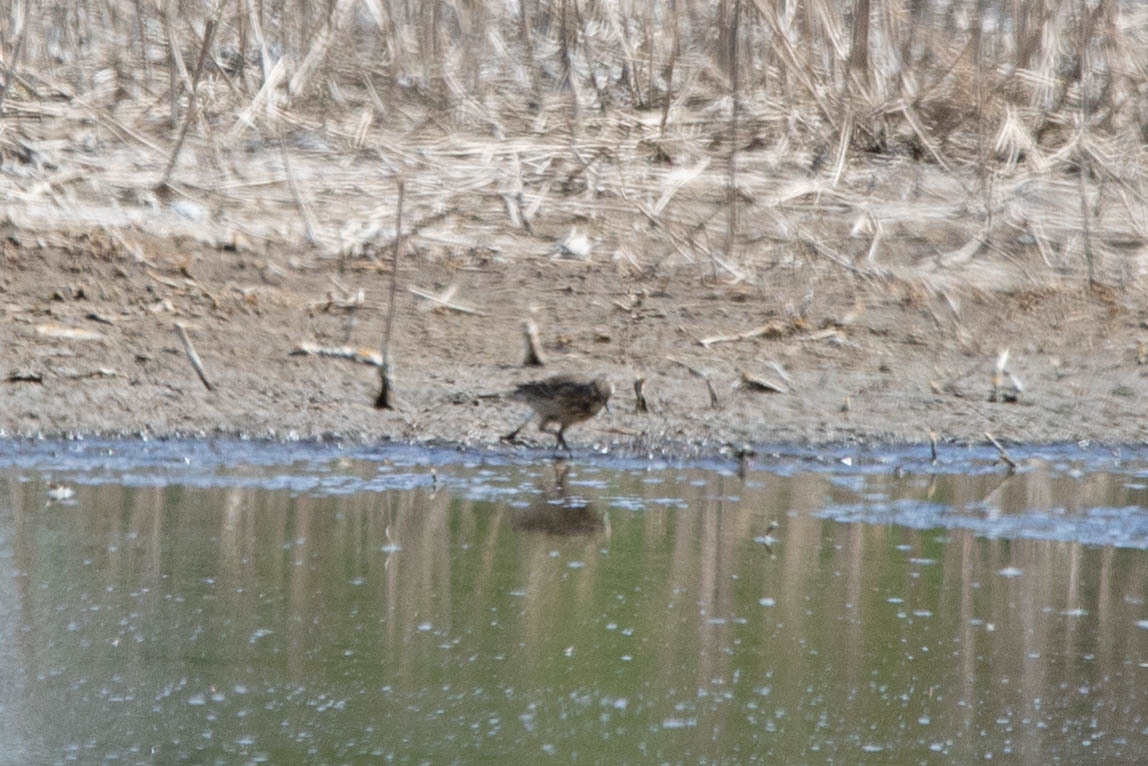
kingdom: Animalia
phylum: Chordata
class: Aves
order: Passeriformes
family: Motacillidae
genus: Anthus
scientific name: Anthus rubescens
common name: Buff-bellied pipit
